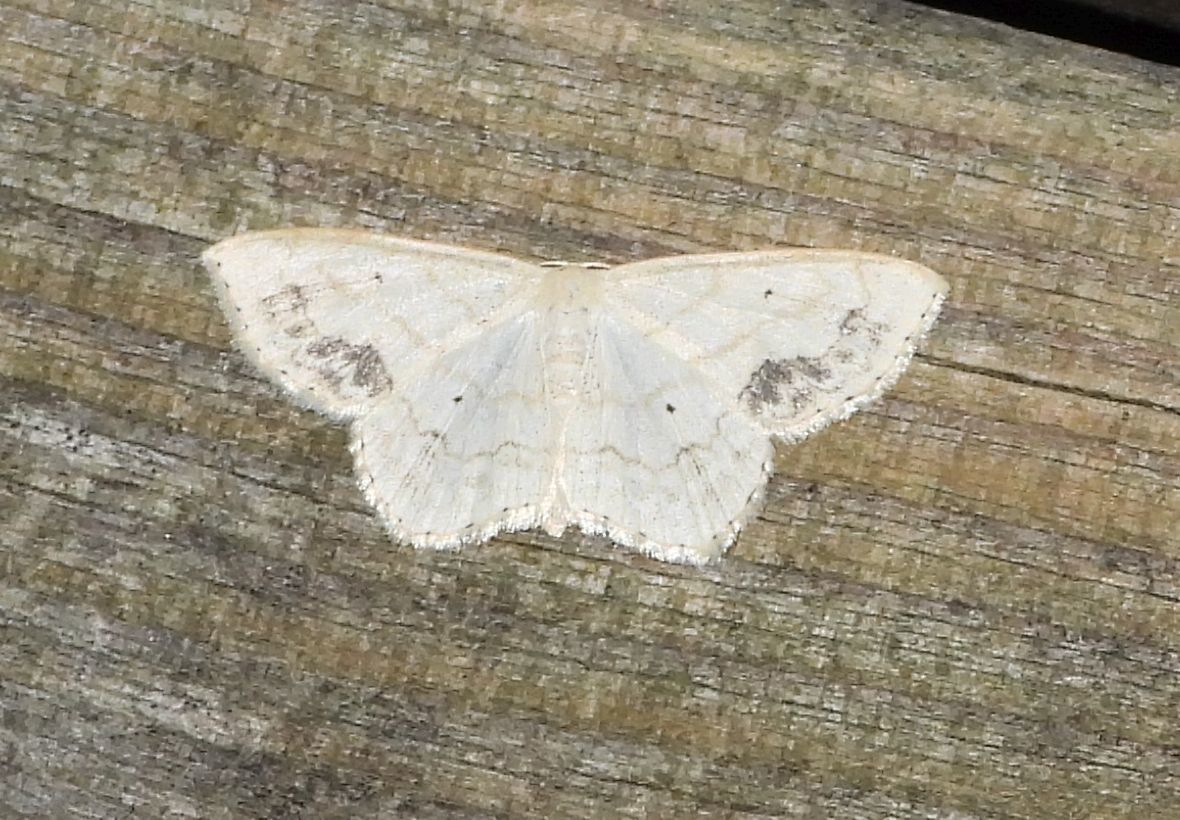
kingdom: Animalia
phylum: Arthropoda
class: Insecta
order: Lepidoptera
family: Geometridae
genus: Scopula
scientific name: Scopula limboundata
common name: Large lace border
